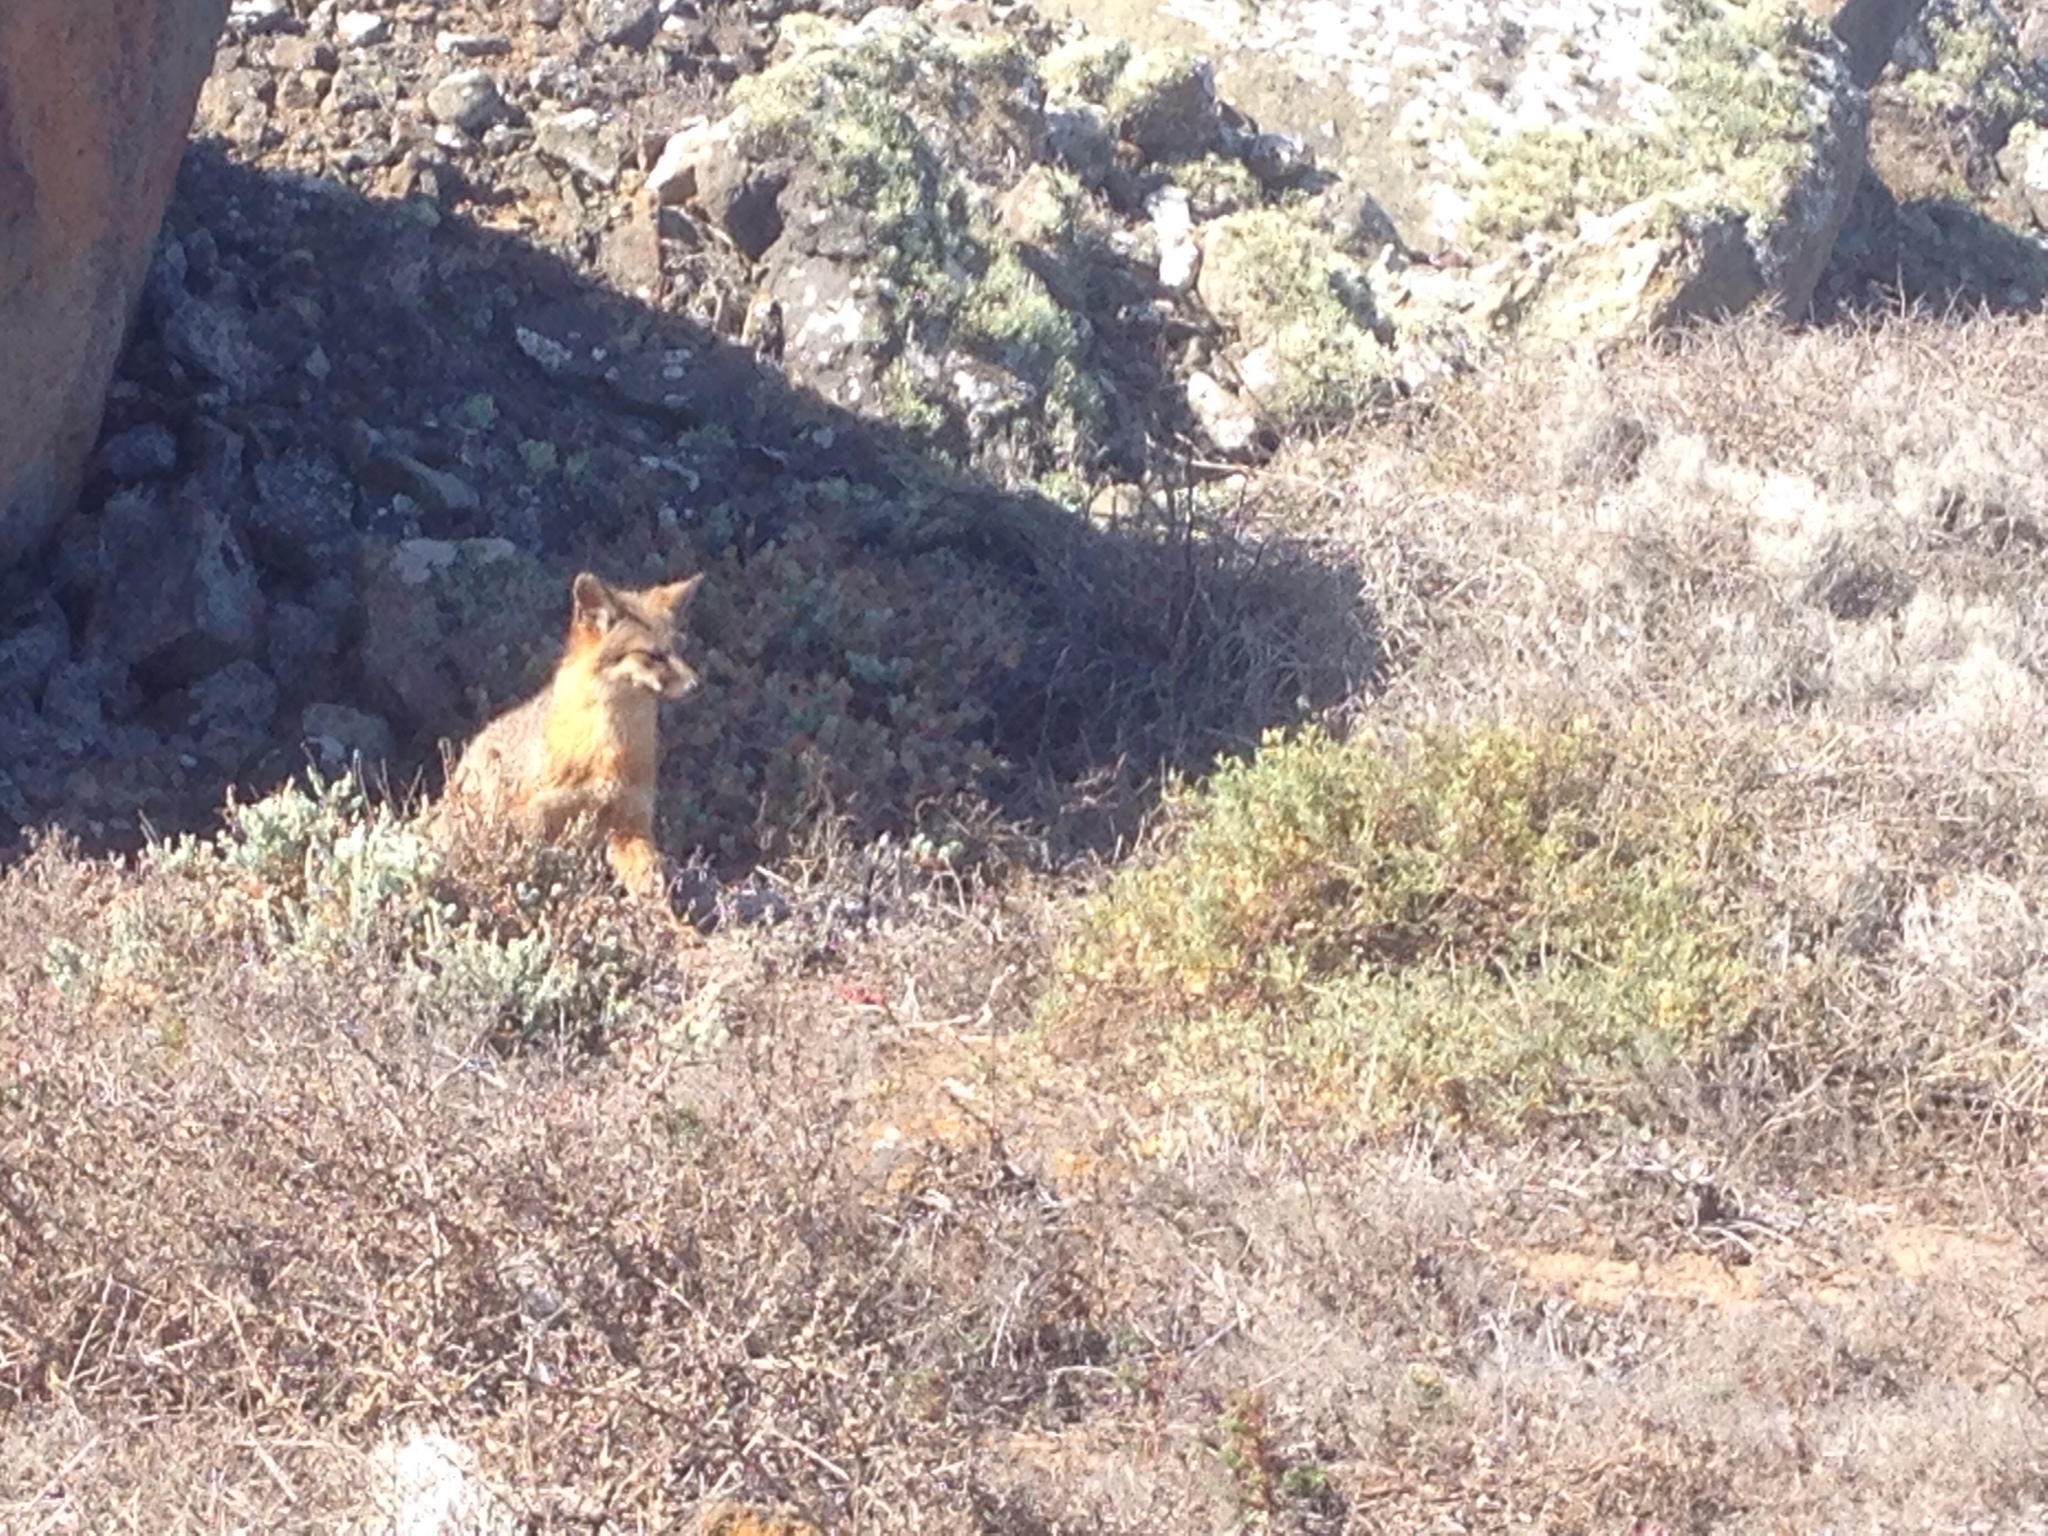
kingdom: Animalia
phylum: Chordata
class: Mammalia
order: Carnivora
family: Canidae
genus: Urocyon
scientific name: Urocyon littoralis
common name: Island gray fox
